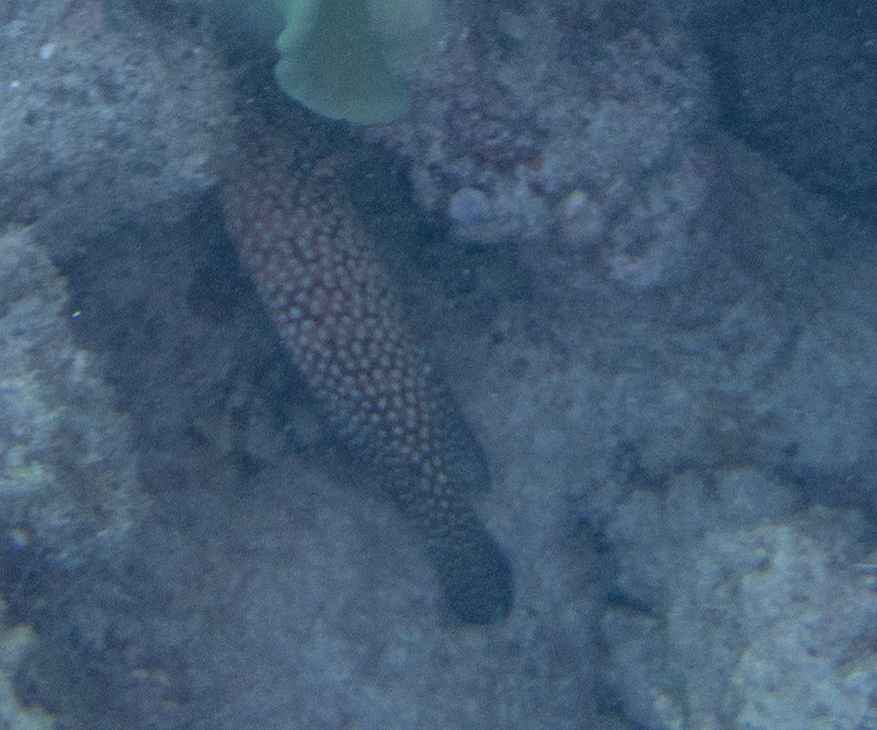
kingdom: Animalia
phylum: Chordata
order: Perciformes
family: Serranidae
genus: Cephalopholis
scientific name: Cephalopholis cyanostigma
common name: Bluespotted hind
